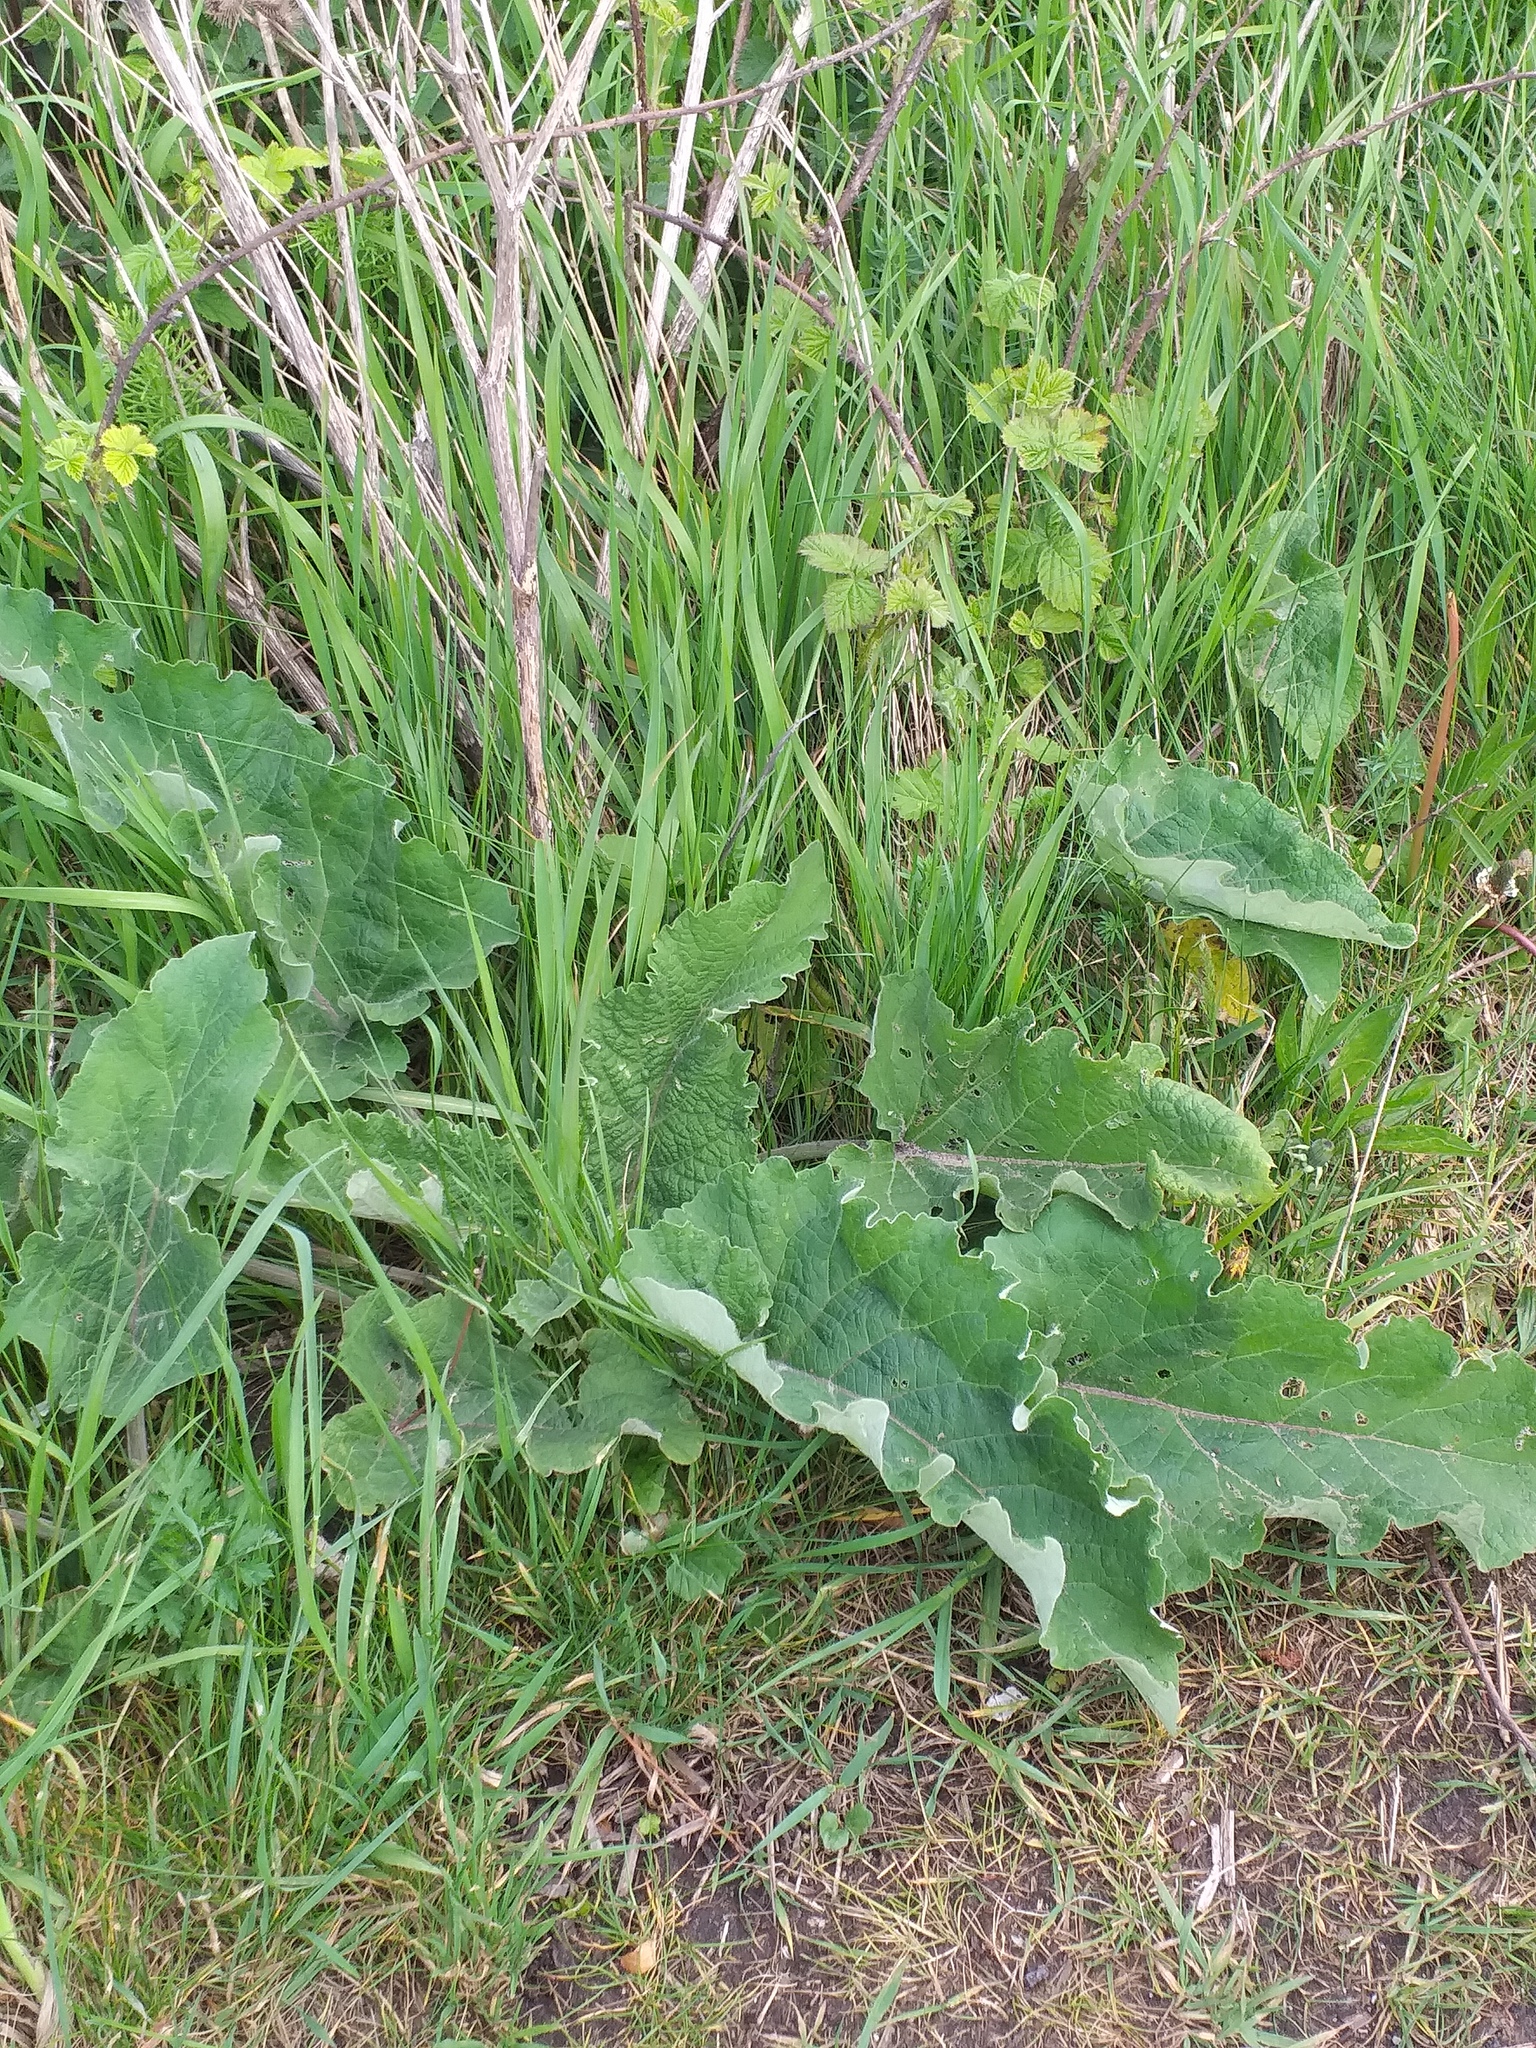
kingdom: Plantae
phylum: Tracheophyta
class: Magnoliopsida
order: Asterales
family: Asteraceae
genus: Arctium
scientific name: Arctium minus
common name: Lesser burdock
